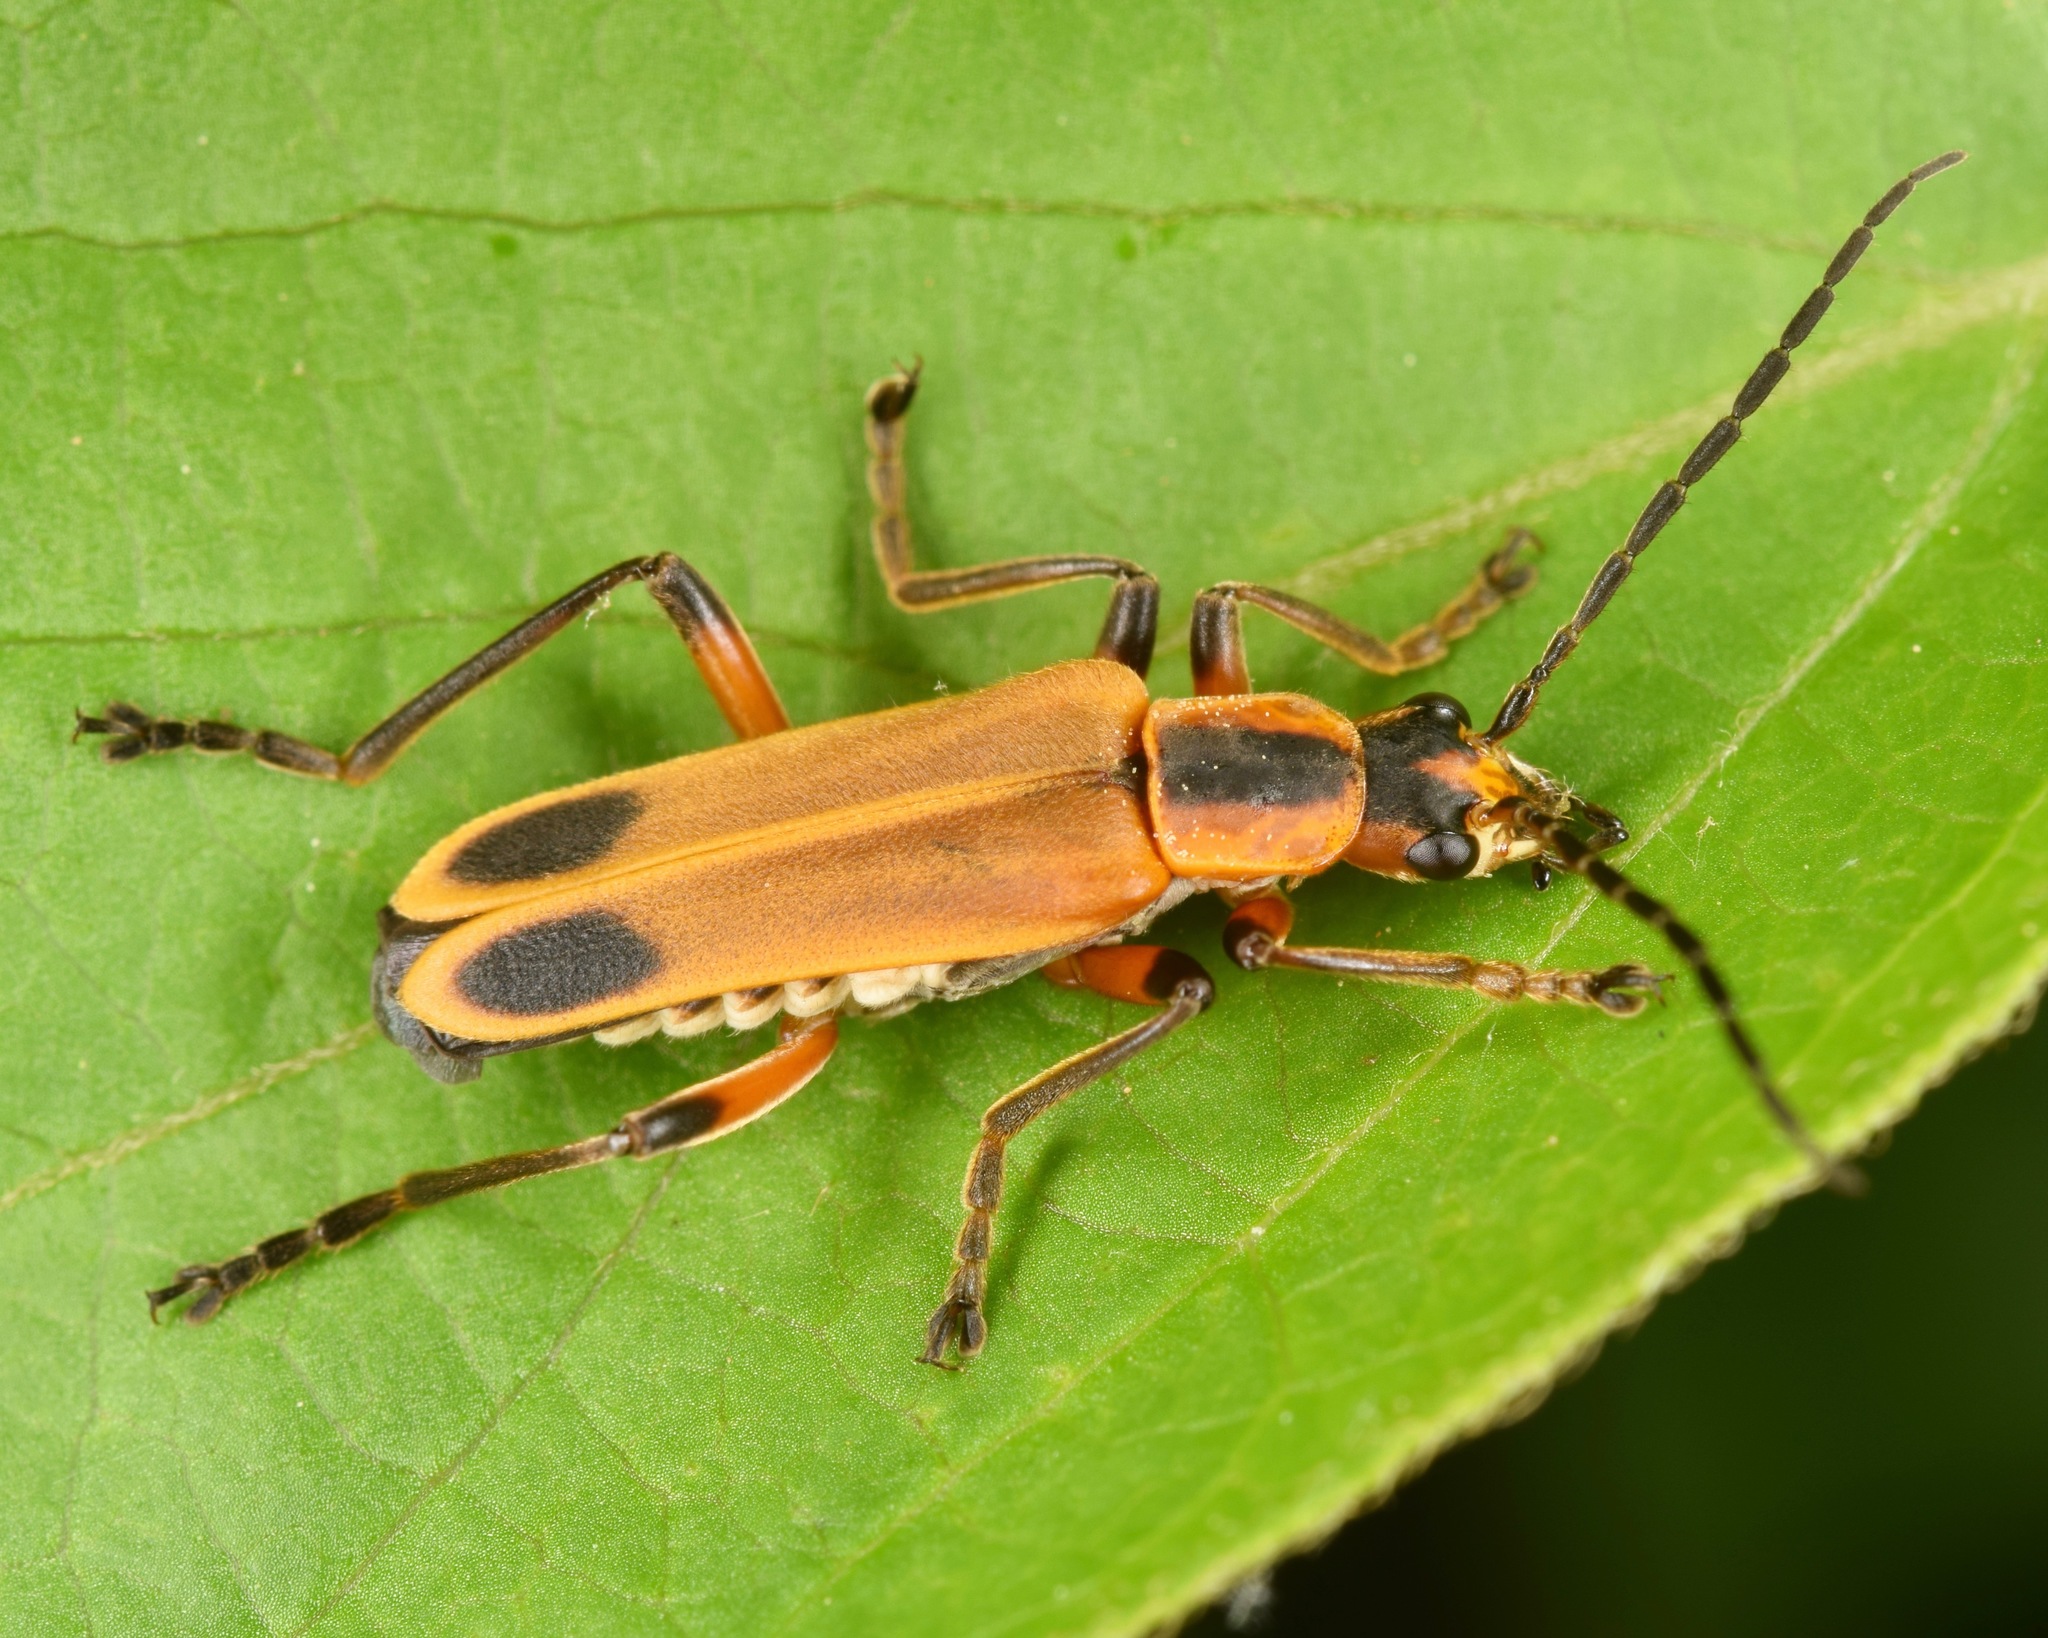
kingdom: Animalia
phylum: Arthropoda
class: Insecta
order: Coleoptera
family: Cantharidae
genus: Chauliognathus
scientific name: Chauliognathus marginatus
